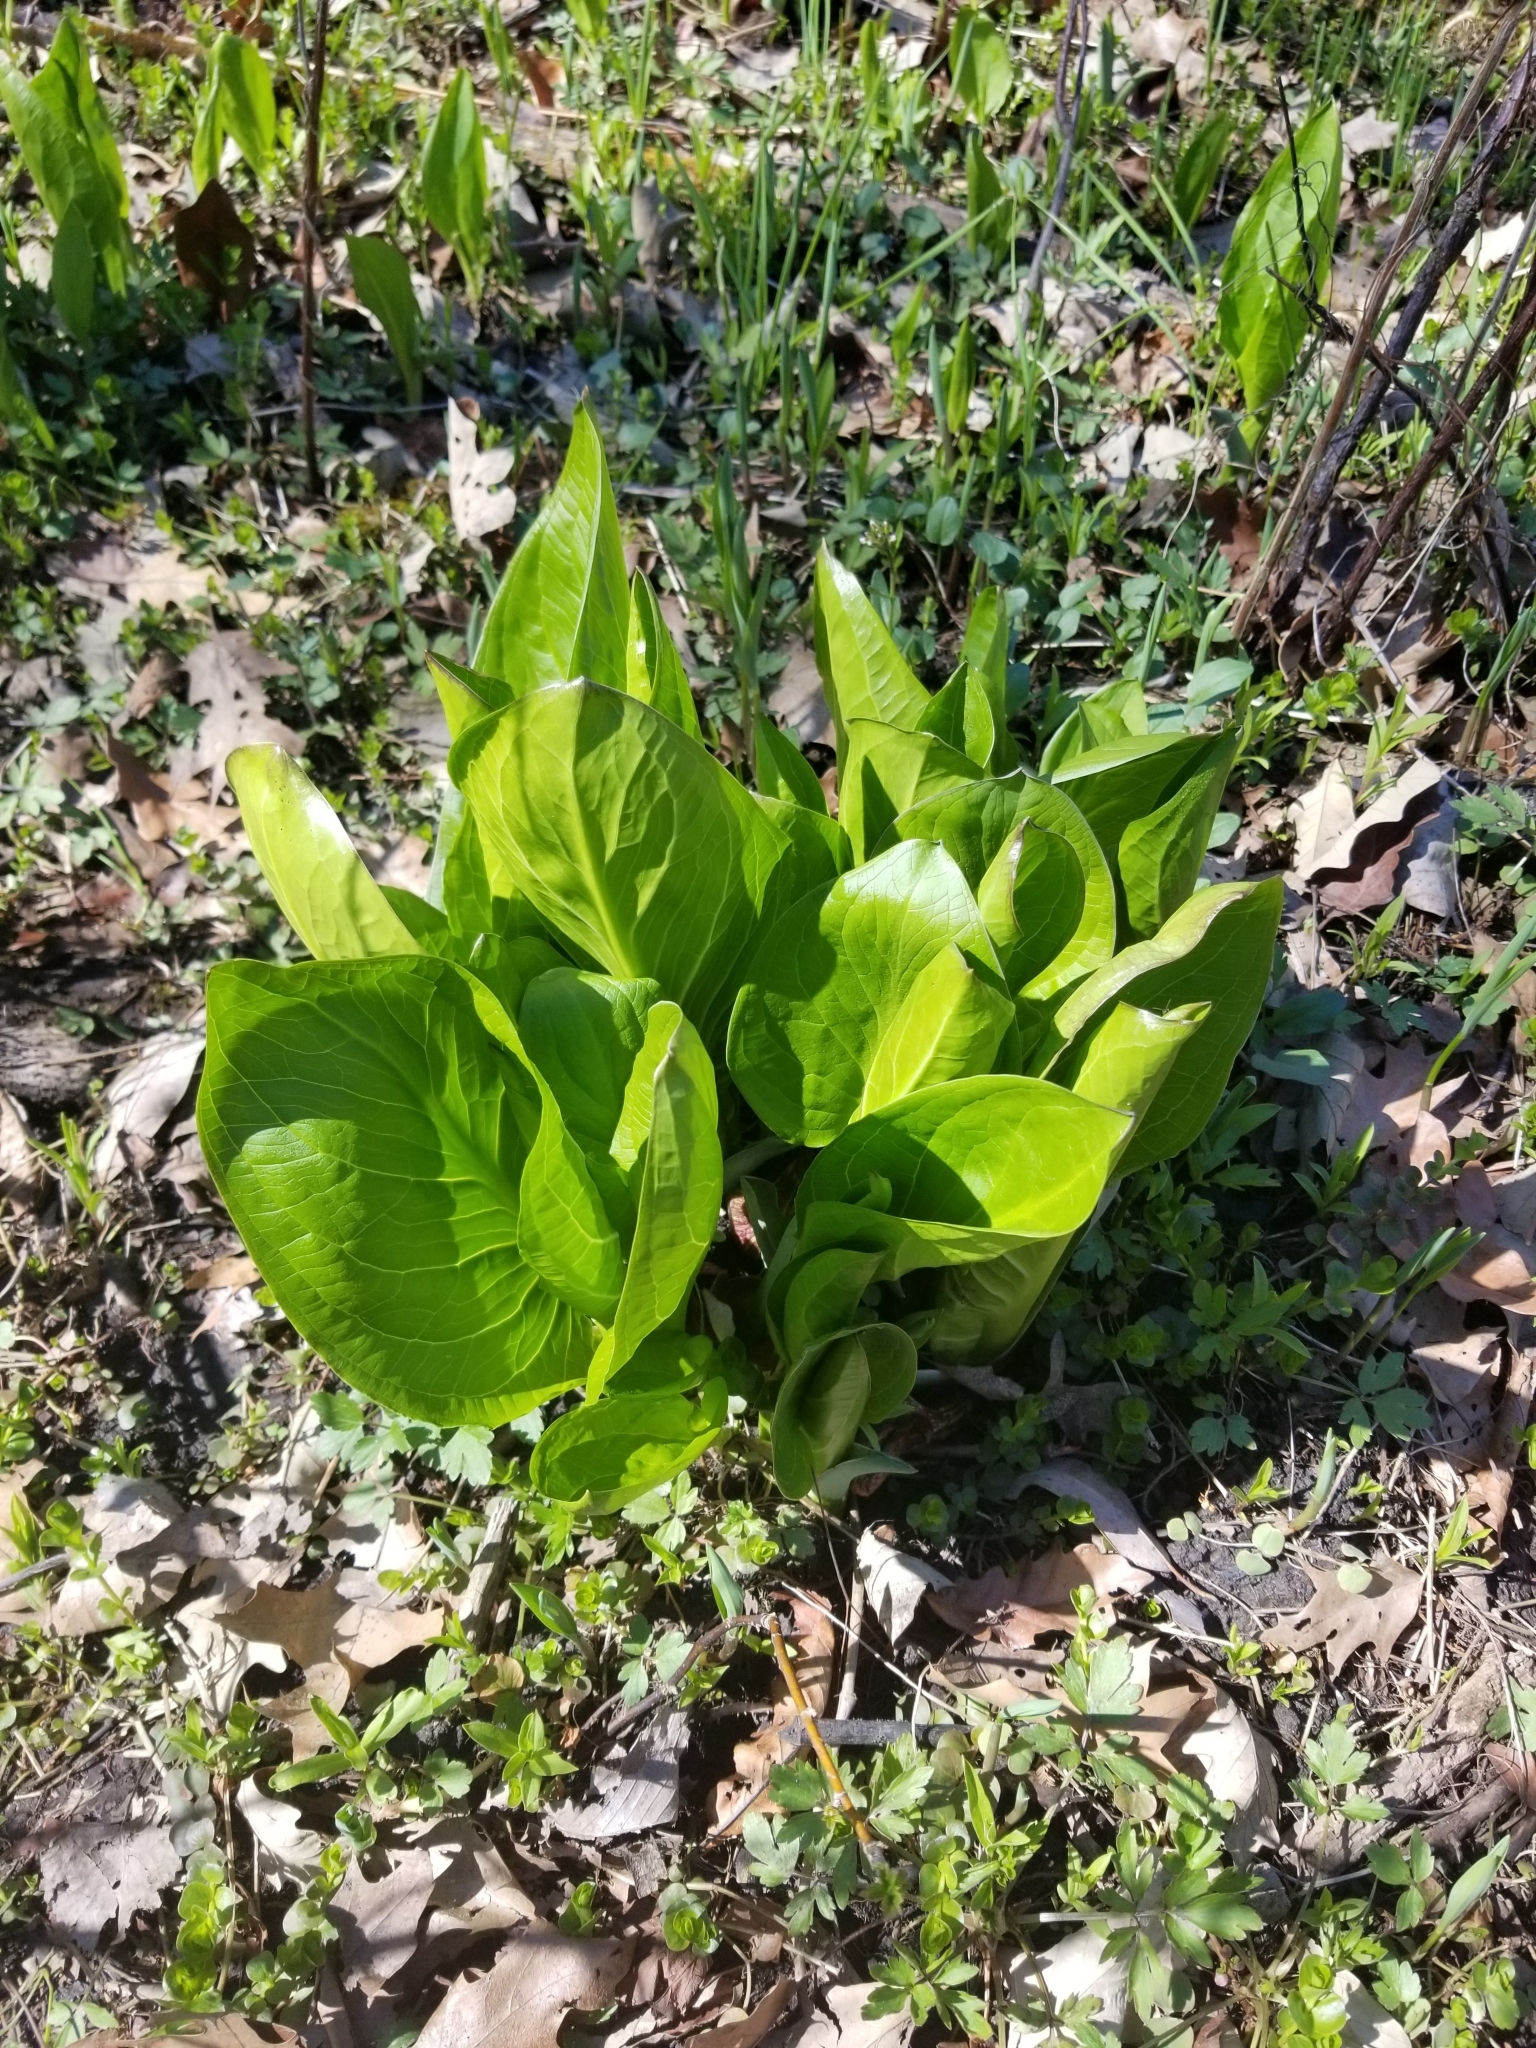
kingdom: Plantae
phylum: Tracheophyta
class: Liliopsida
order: Alismatales
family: Araceae
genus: Symplocarpus
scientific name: Symplocarpus foetidus
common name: Eastern skunk cabbage
